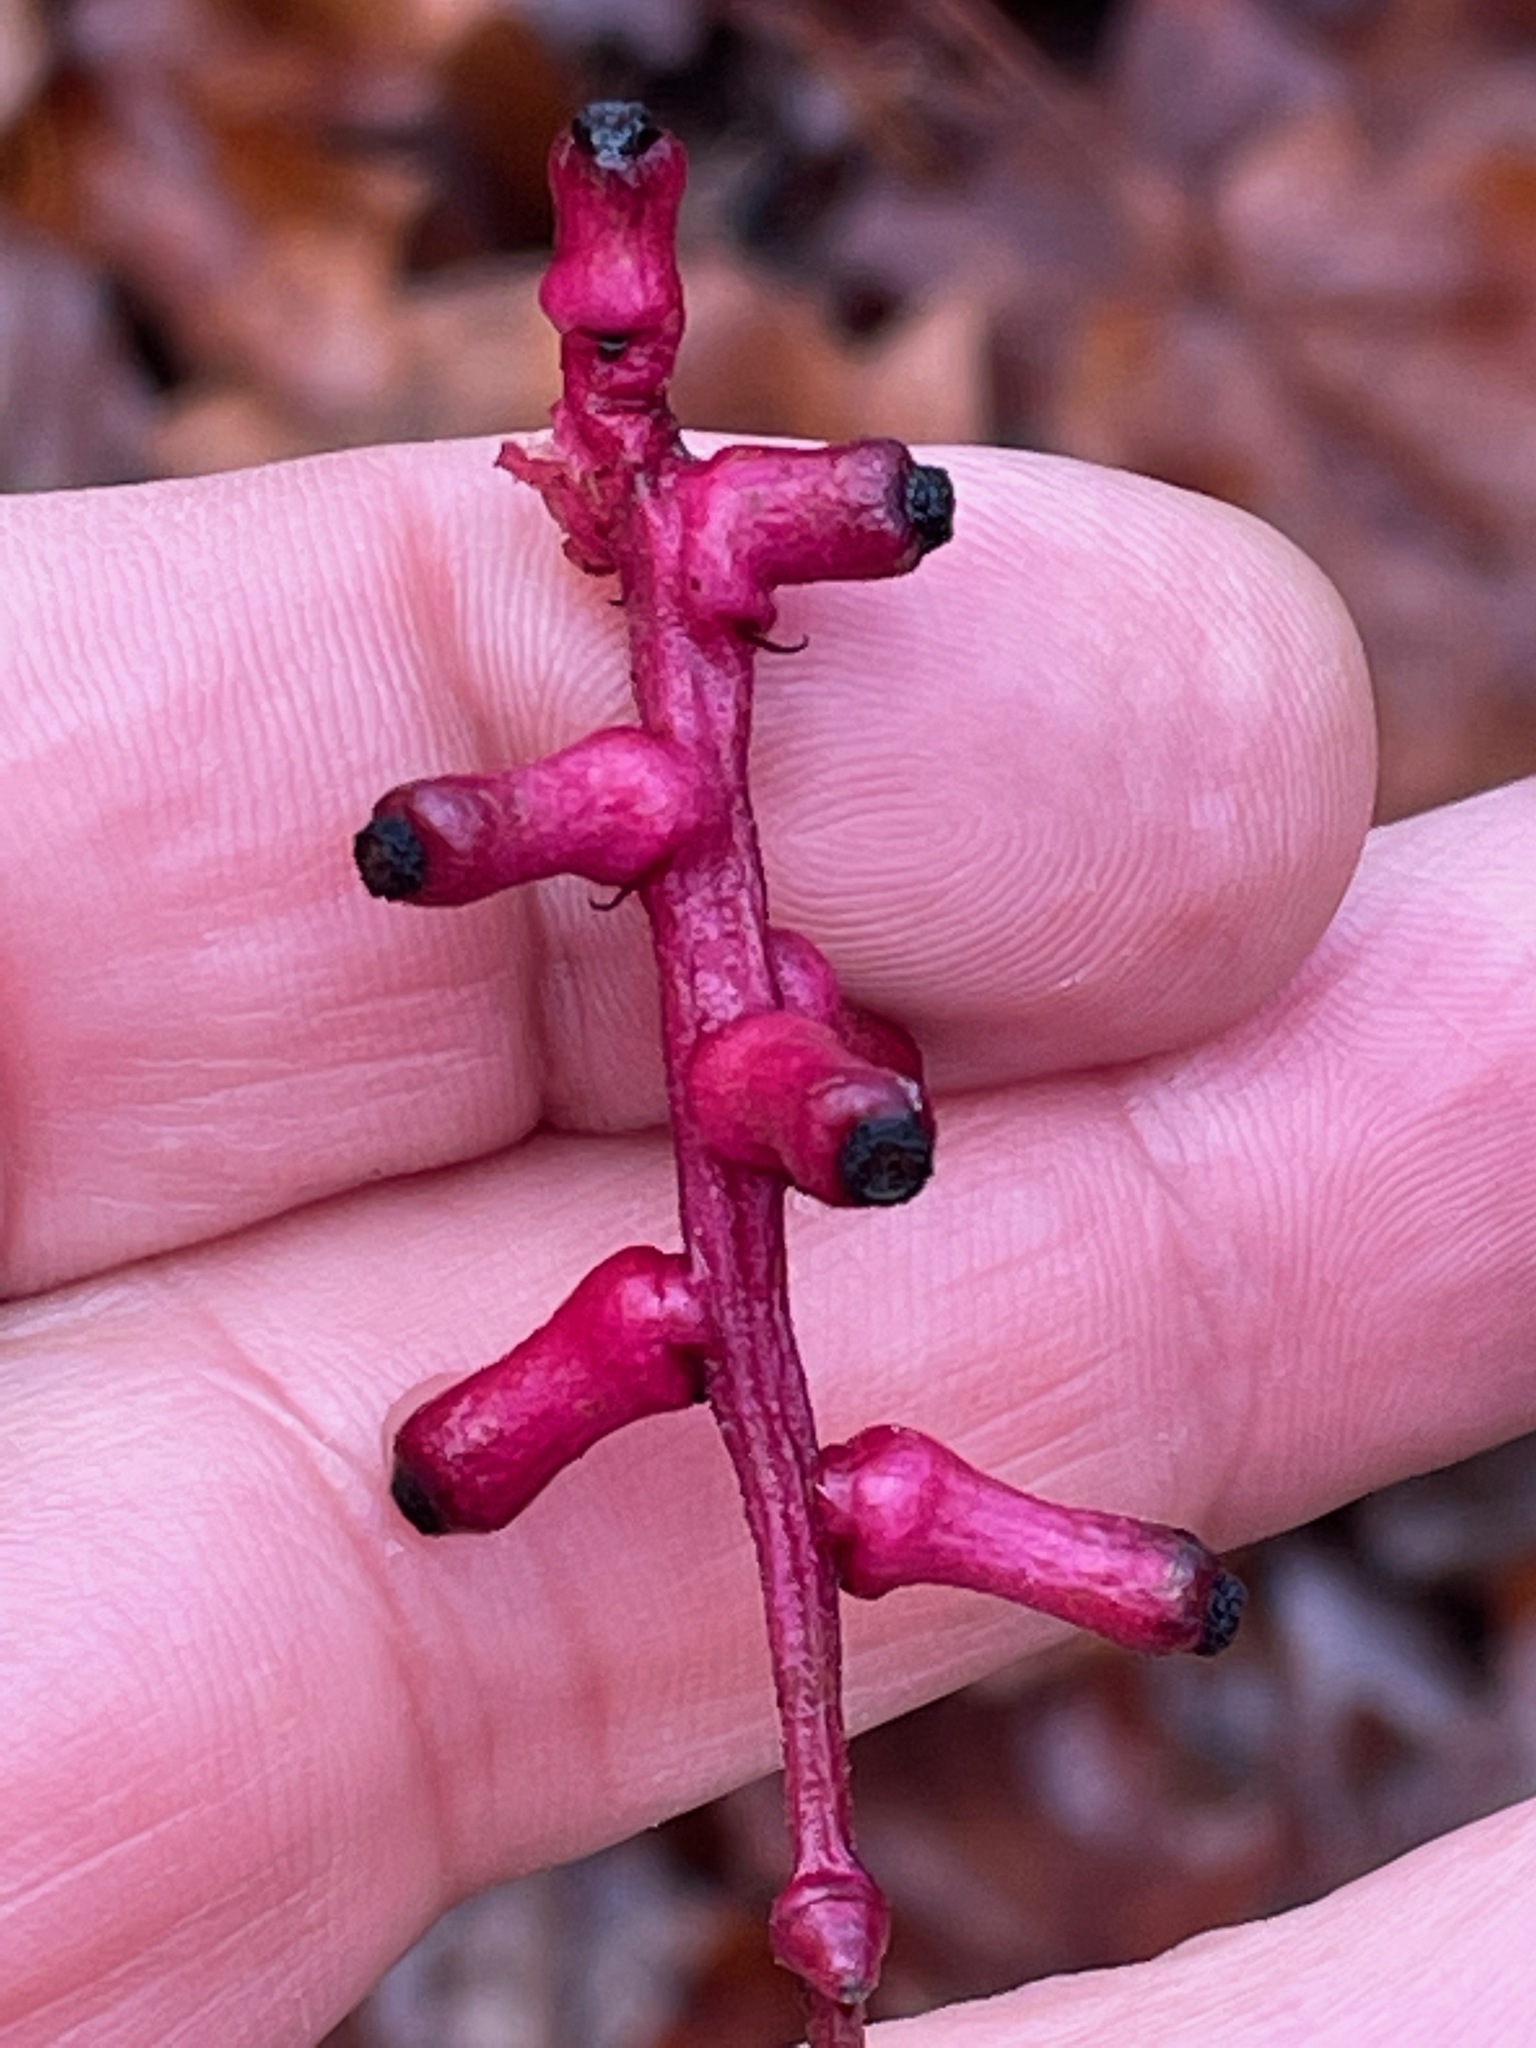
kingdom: Plantae
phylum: Tracheophyta
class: Magnoliopsida
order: Ranunculales
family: Ranunculaceae
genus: Actaea
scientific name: Actaea pachypoda
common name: Doll's-eyes
